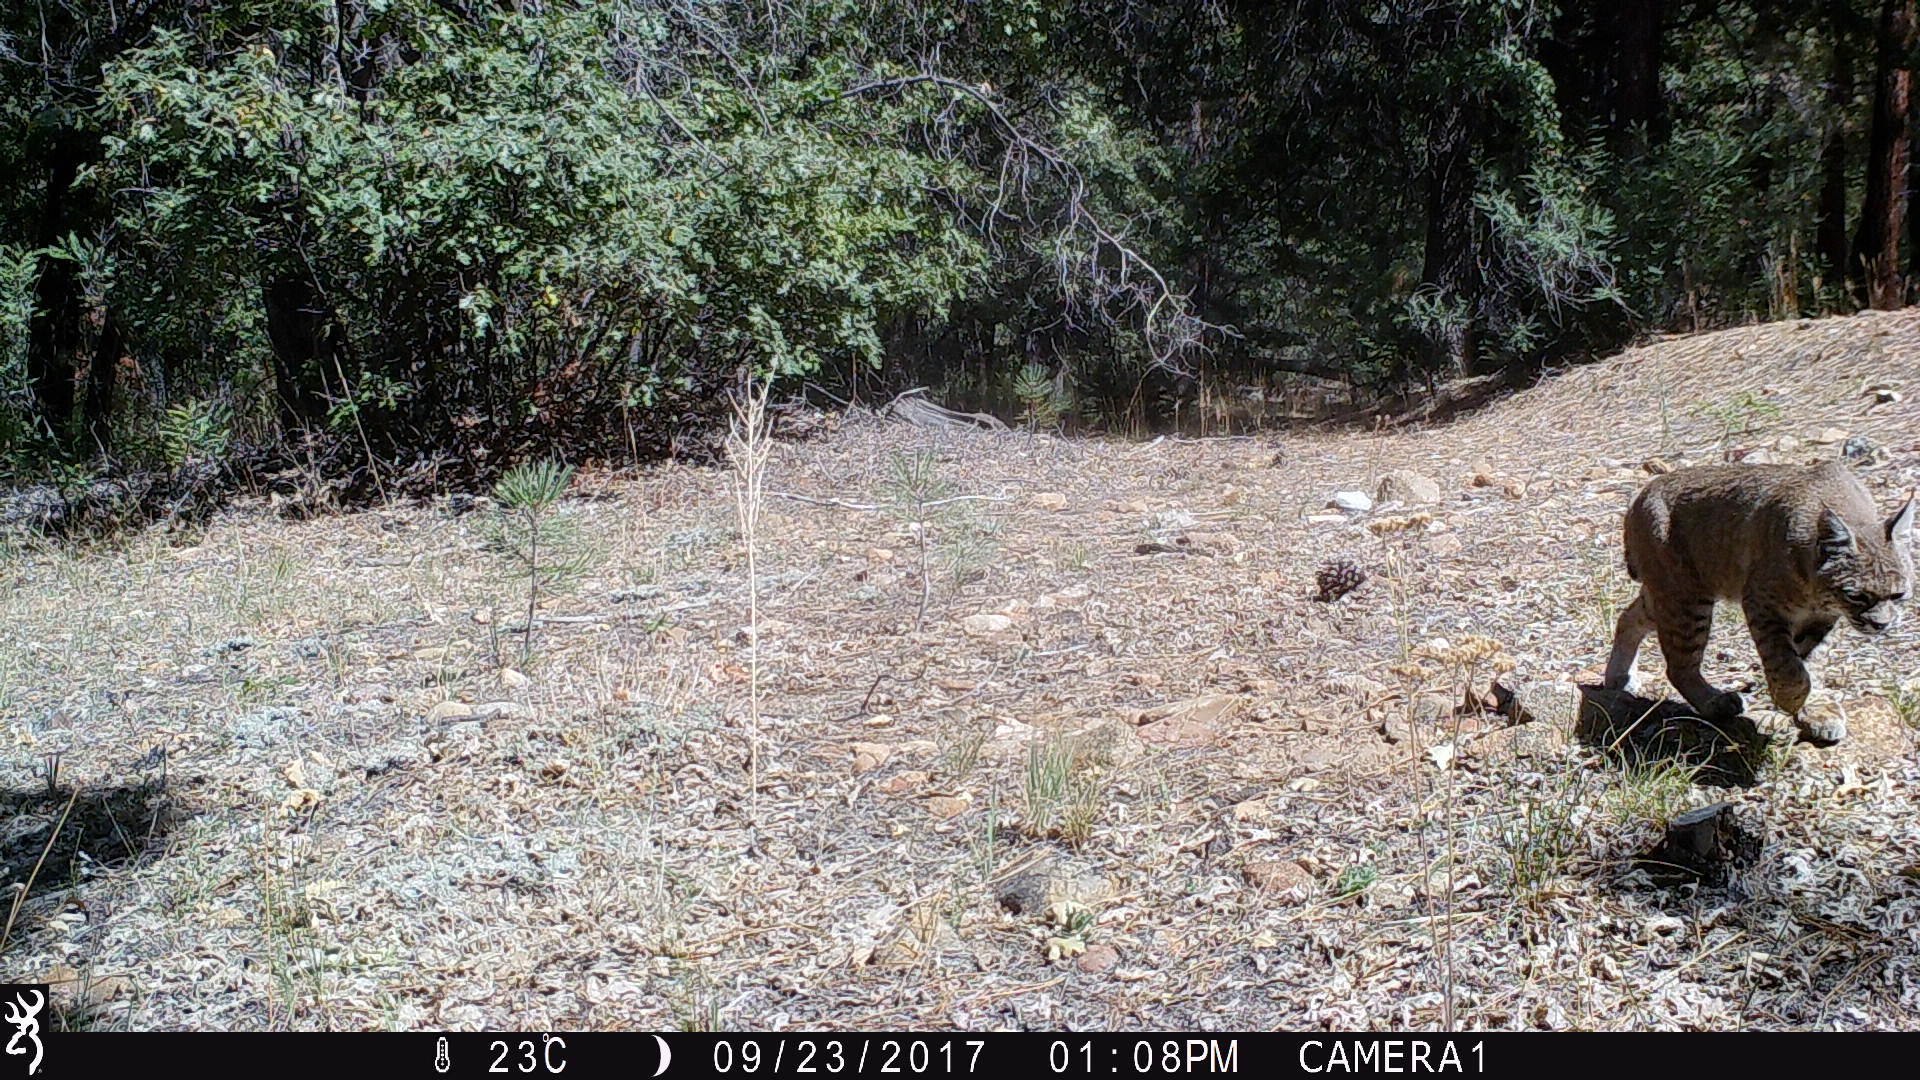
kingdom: Animalia
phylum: Chordata
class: Mammalia
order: Carnivora
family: Felidae
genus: Lynx
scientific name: Lynx rufus
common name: Bobcat
